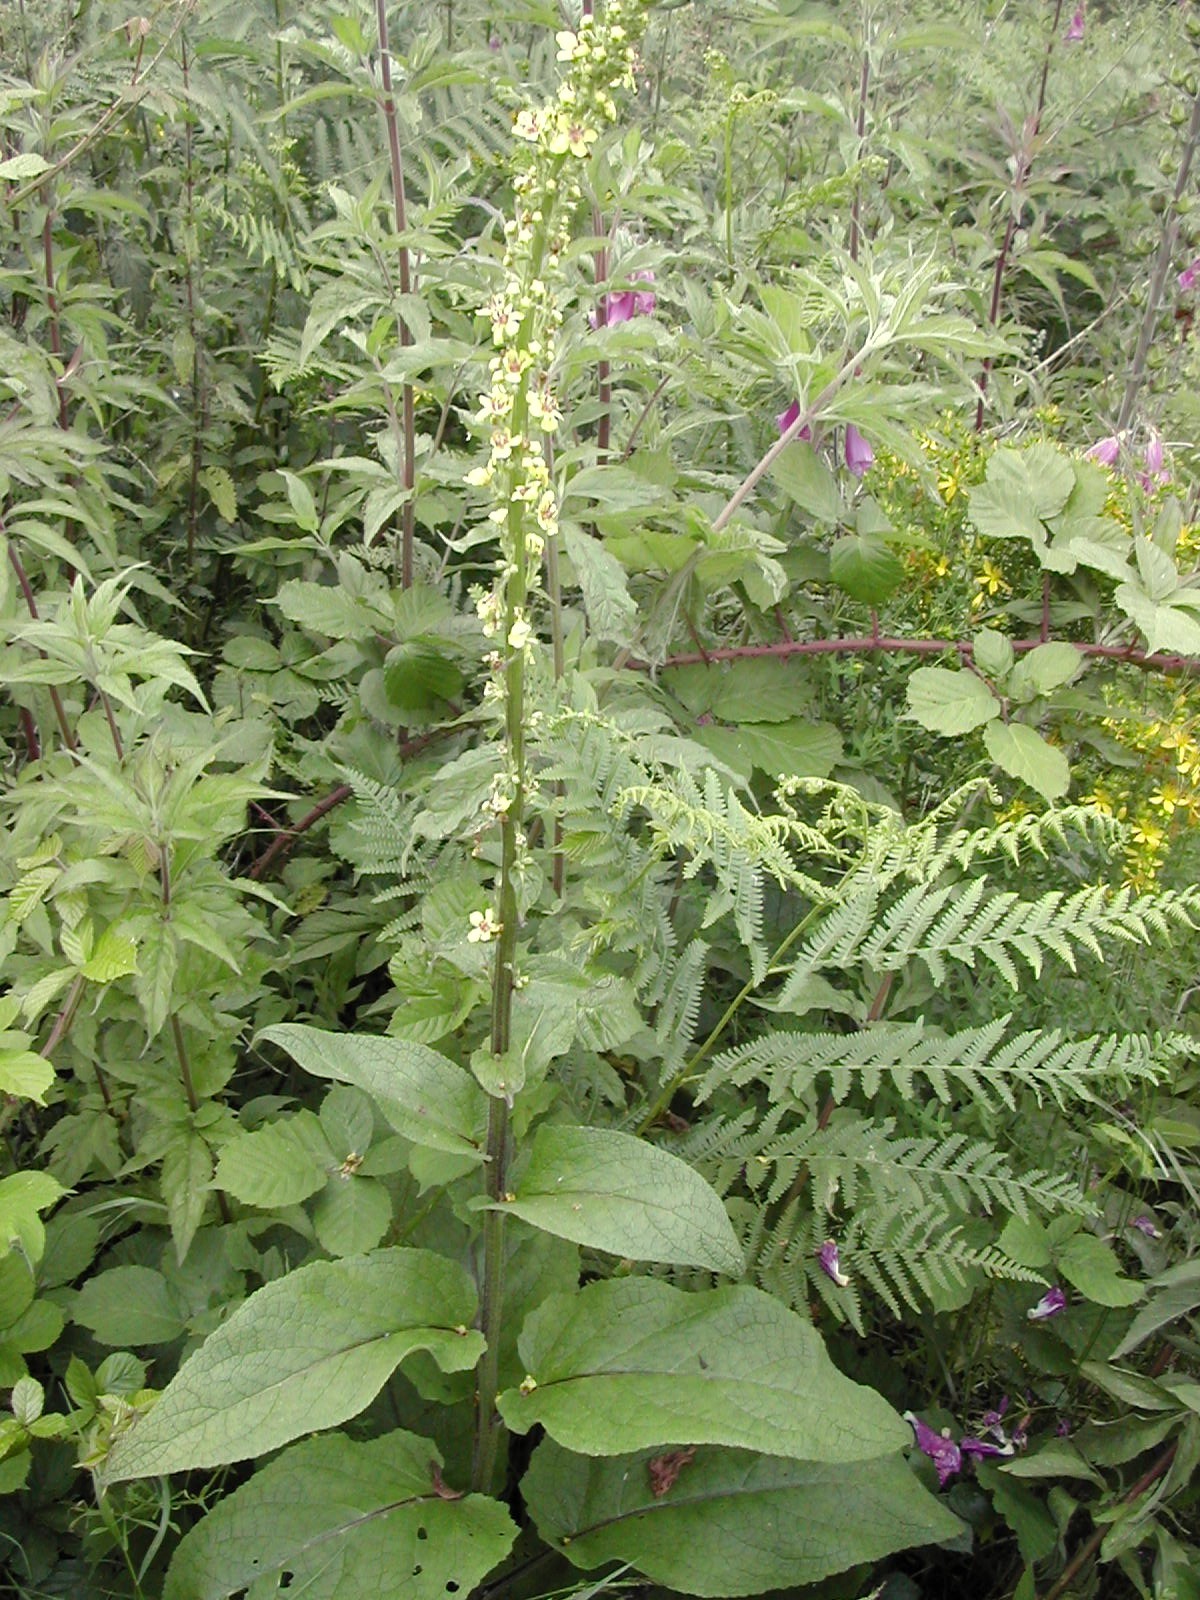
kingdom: Plantae
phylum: Tracheophyta
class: Magnoliopsida
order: Lamiales
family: Scrophulariaceae
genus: Verbascum
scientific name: Verbascum nigrum
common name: Dark mullein
